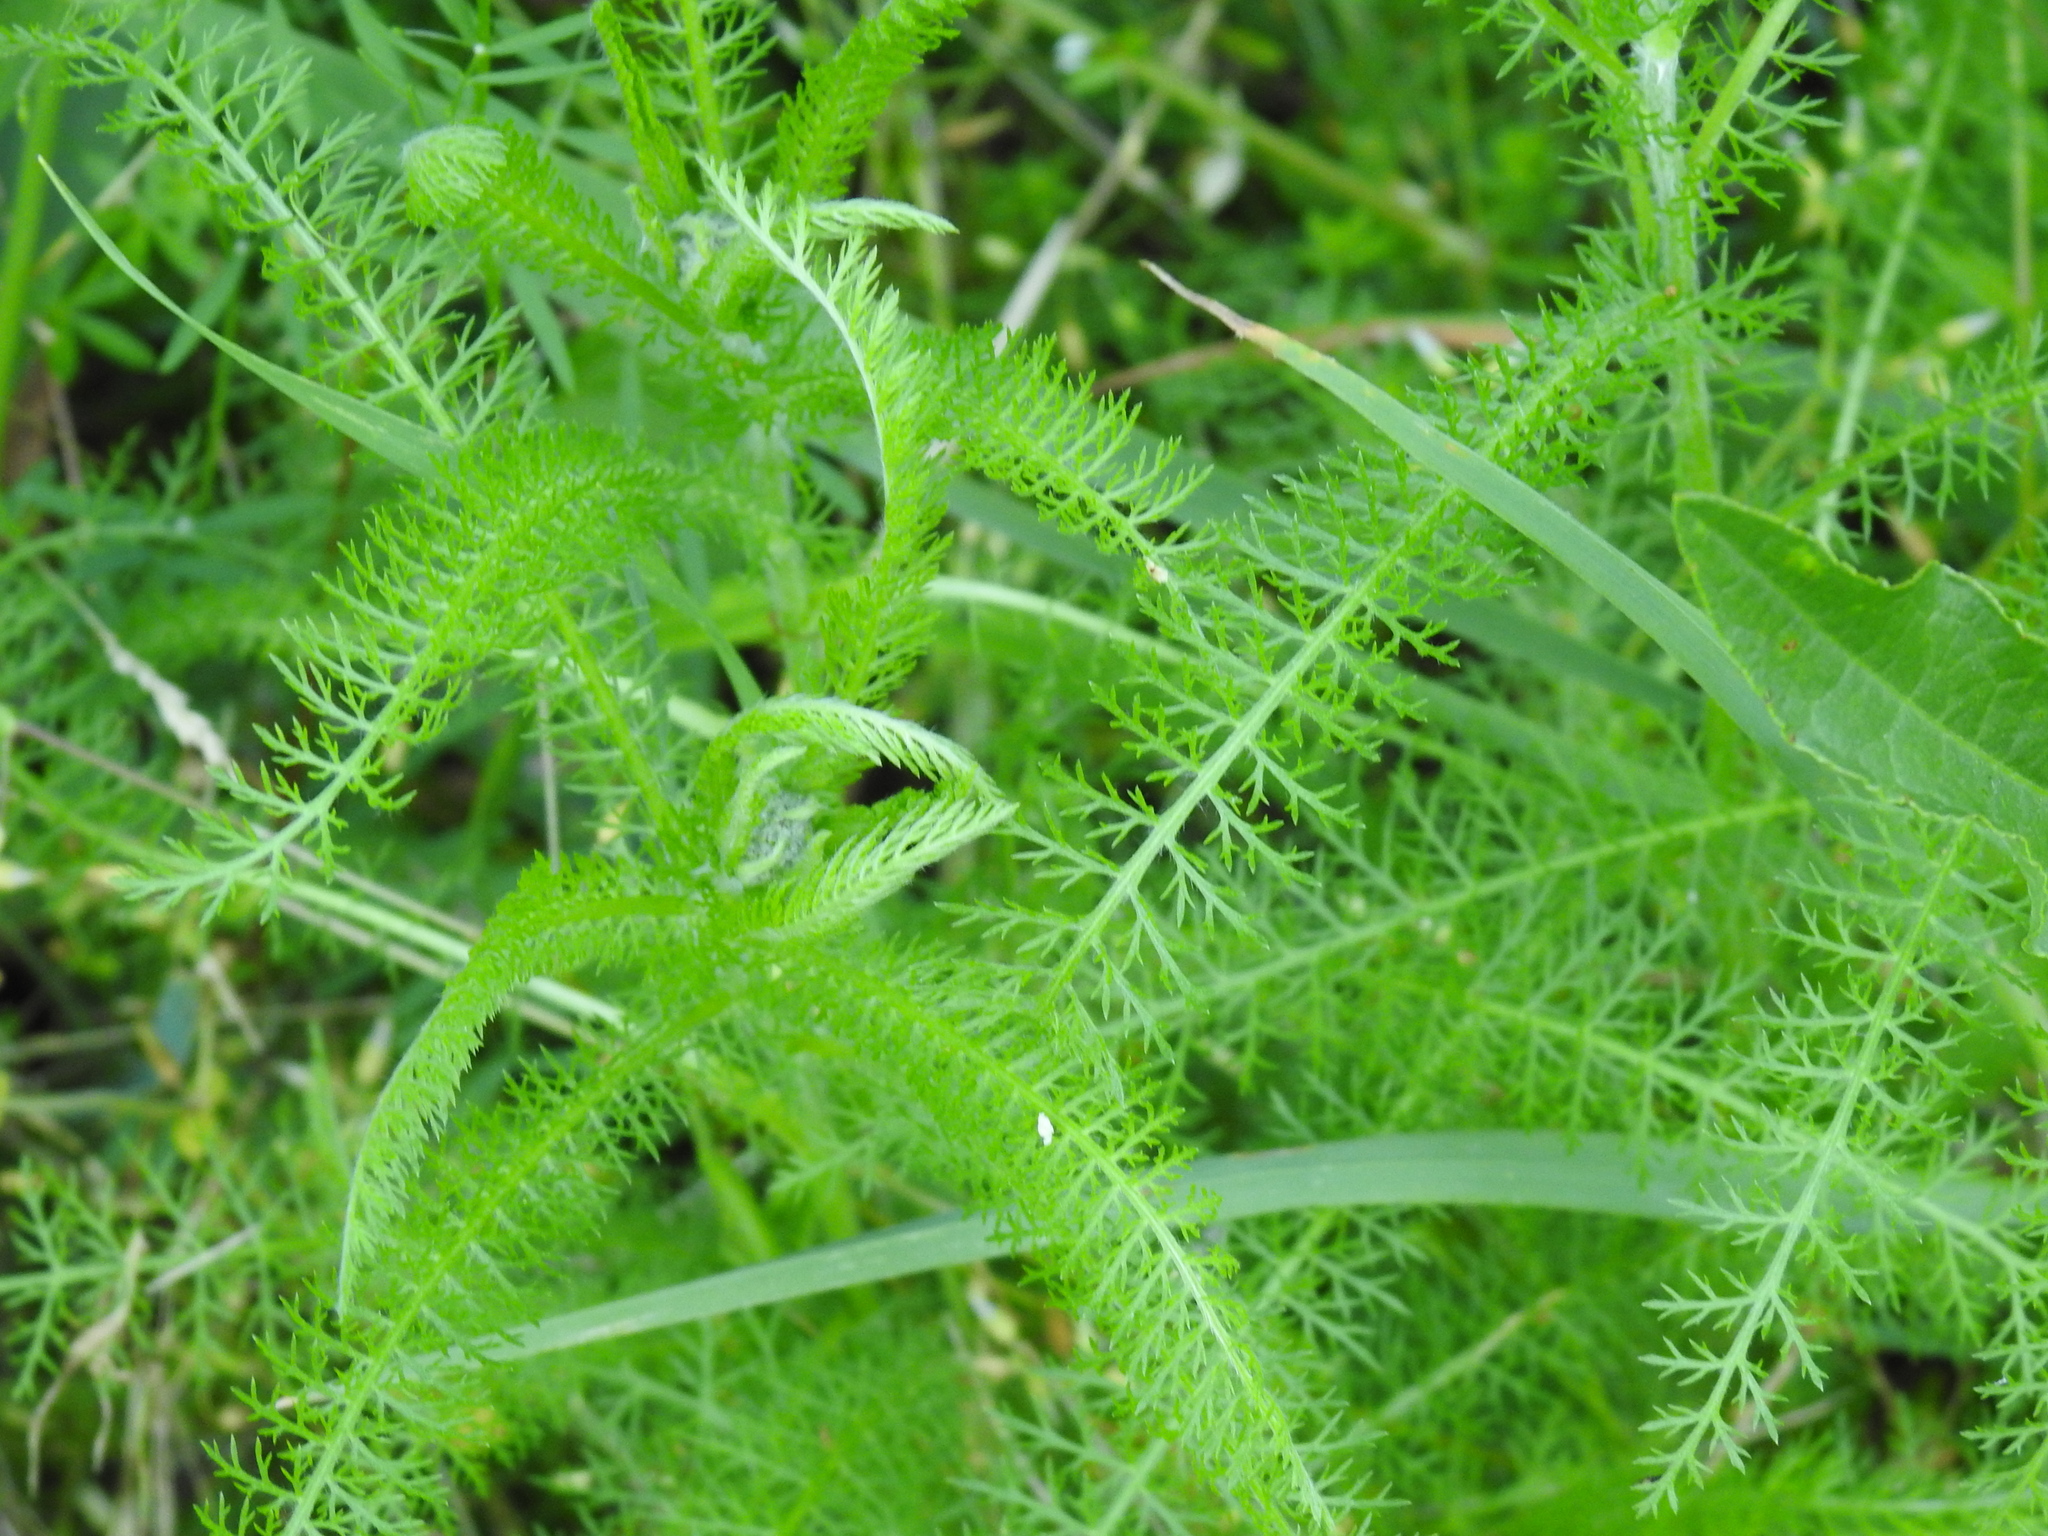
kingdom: Plantae
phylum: Tracheophyta
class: Magnoliopsida
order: Asterales
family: Asteraceae
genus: Achillea
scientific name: Achillea millefolium
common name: Yarrow
